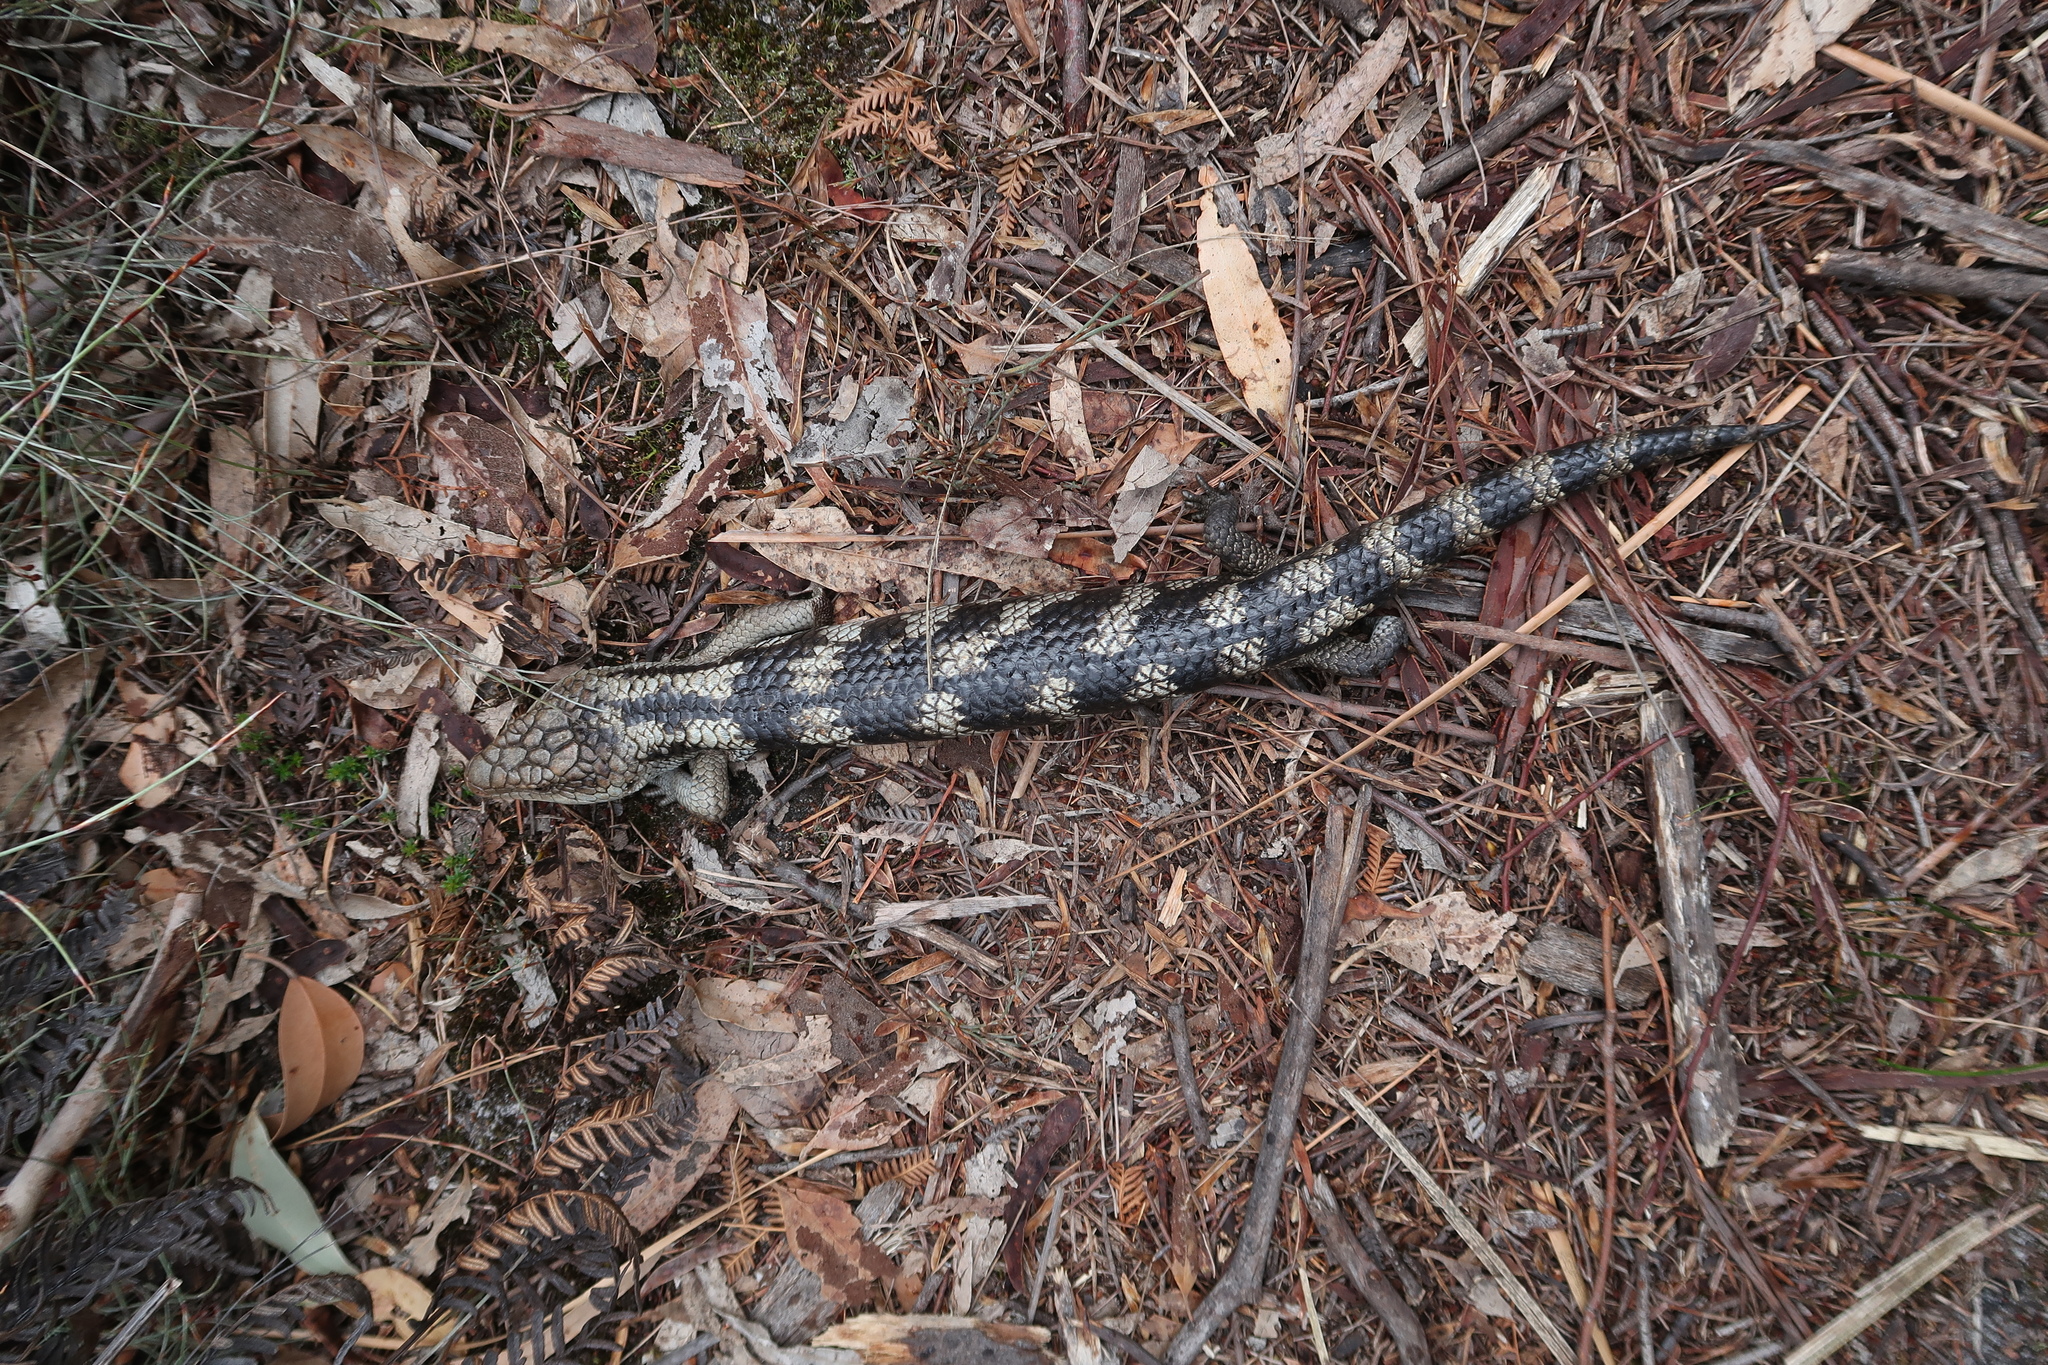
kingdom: Animalia
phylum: Chordata
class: Squamata
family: Scincidae
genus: Tiliqua
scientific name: Tiliqua nigrolutea
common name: Blotched blue-tongued lizard
